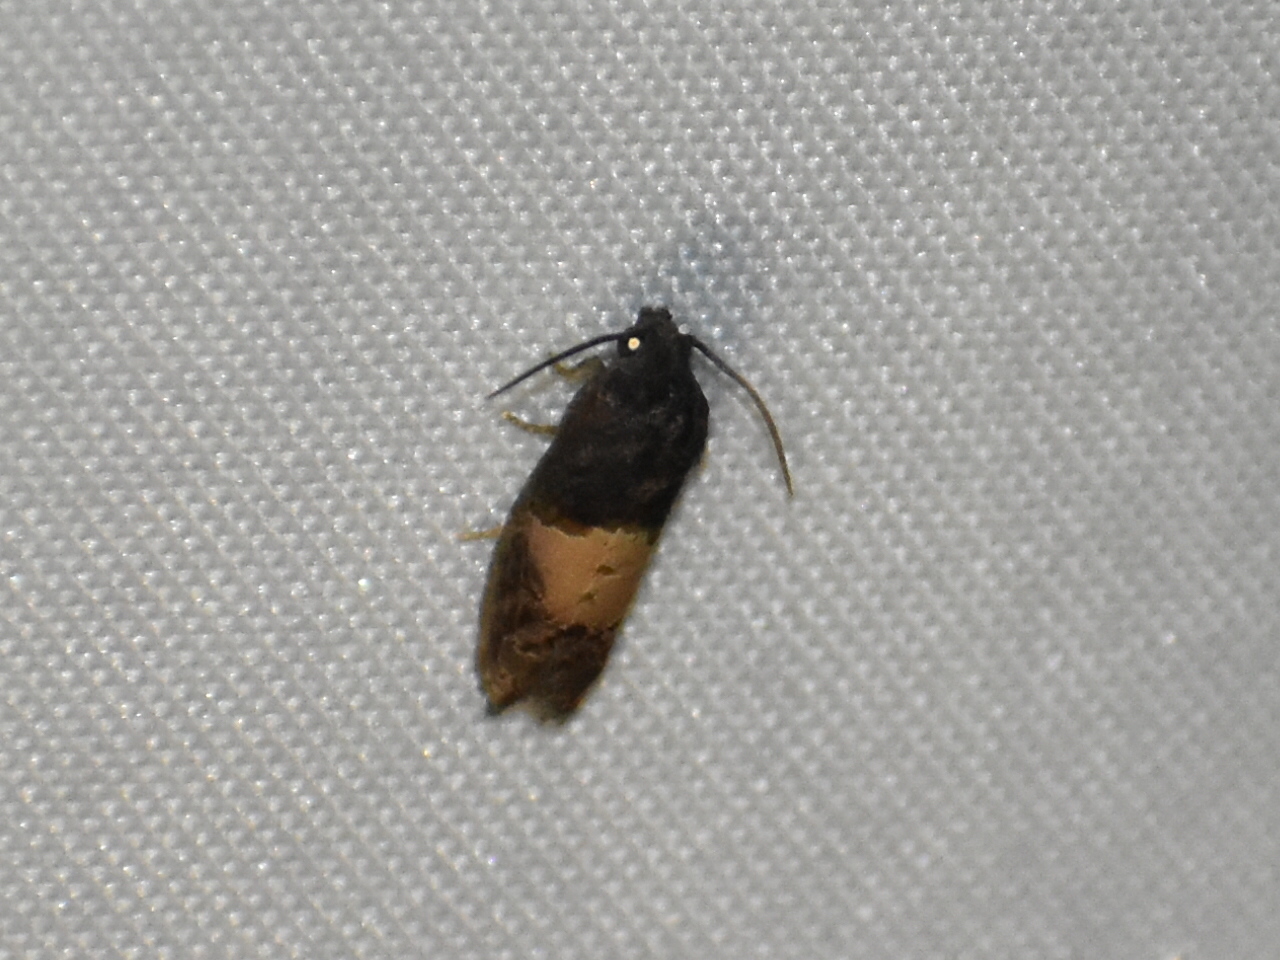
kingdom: Animalia
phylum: Arthropoda
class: Insecta
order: Lepidoptera
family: Tortricidae
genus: Epiblema
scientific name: Epiblema glenni
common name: Glenn's epiblema
